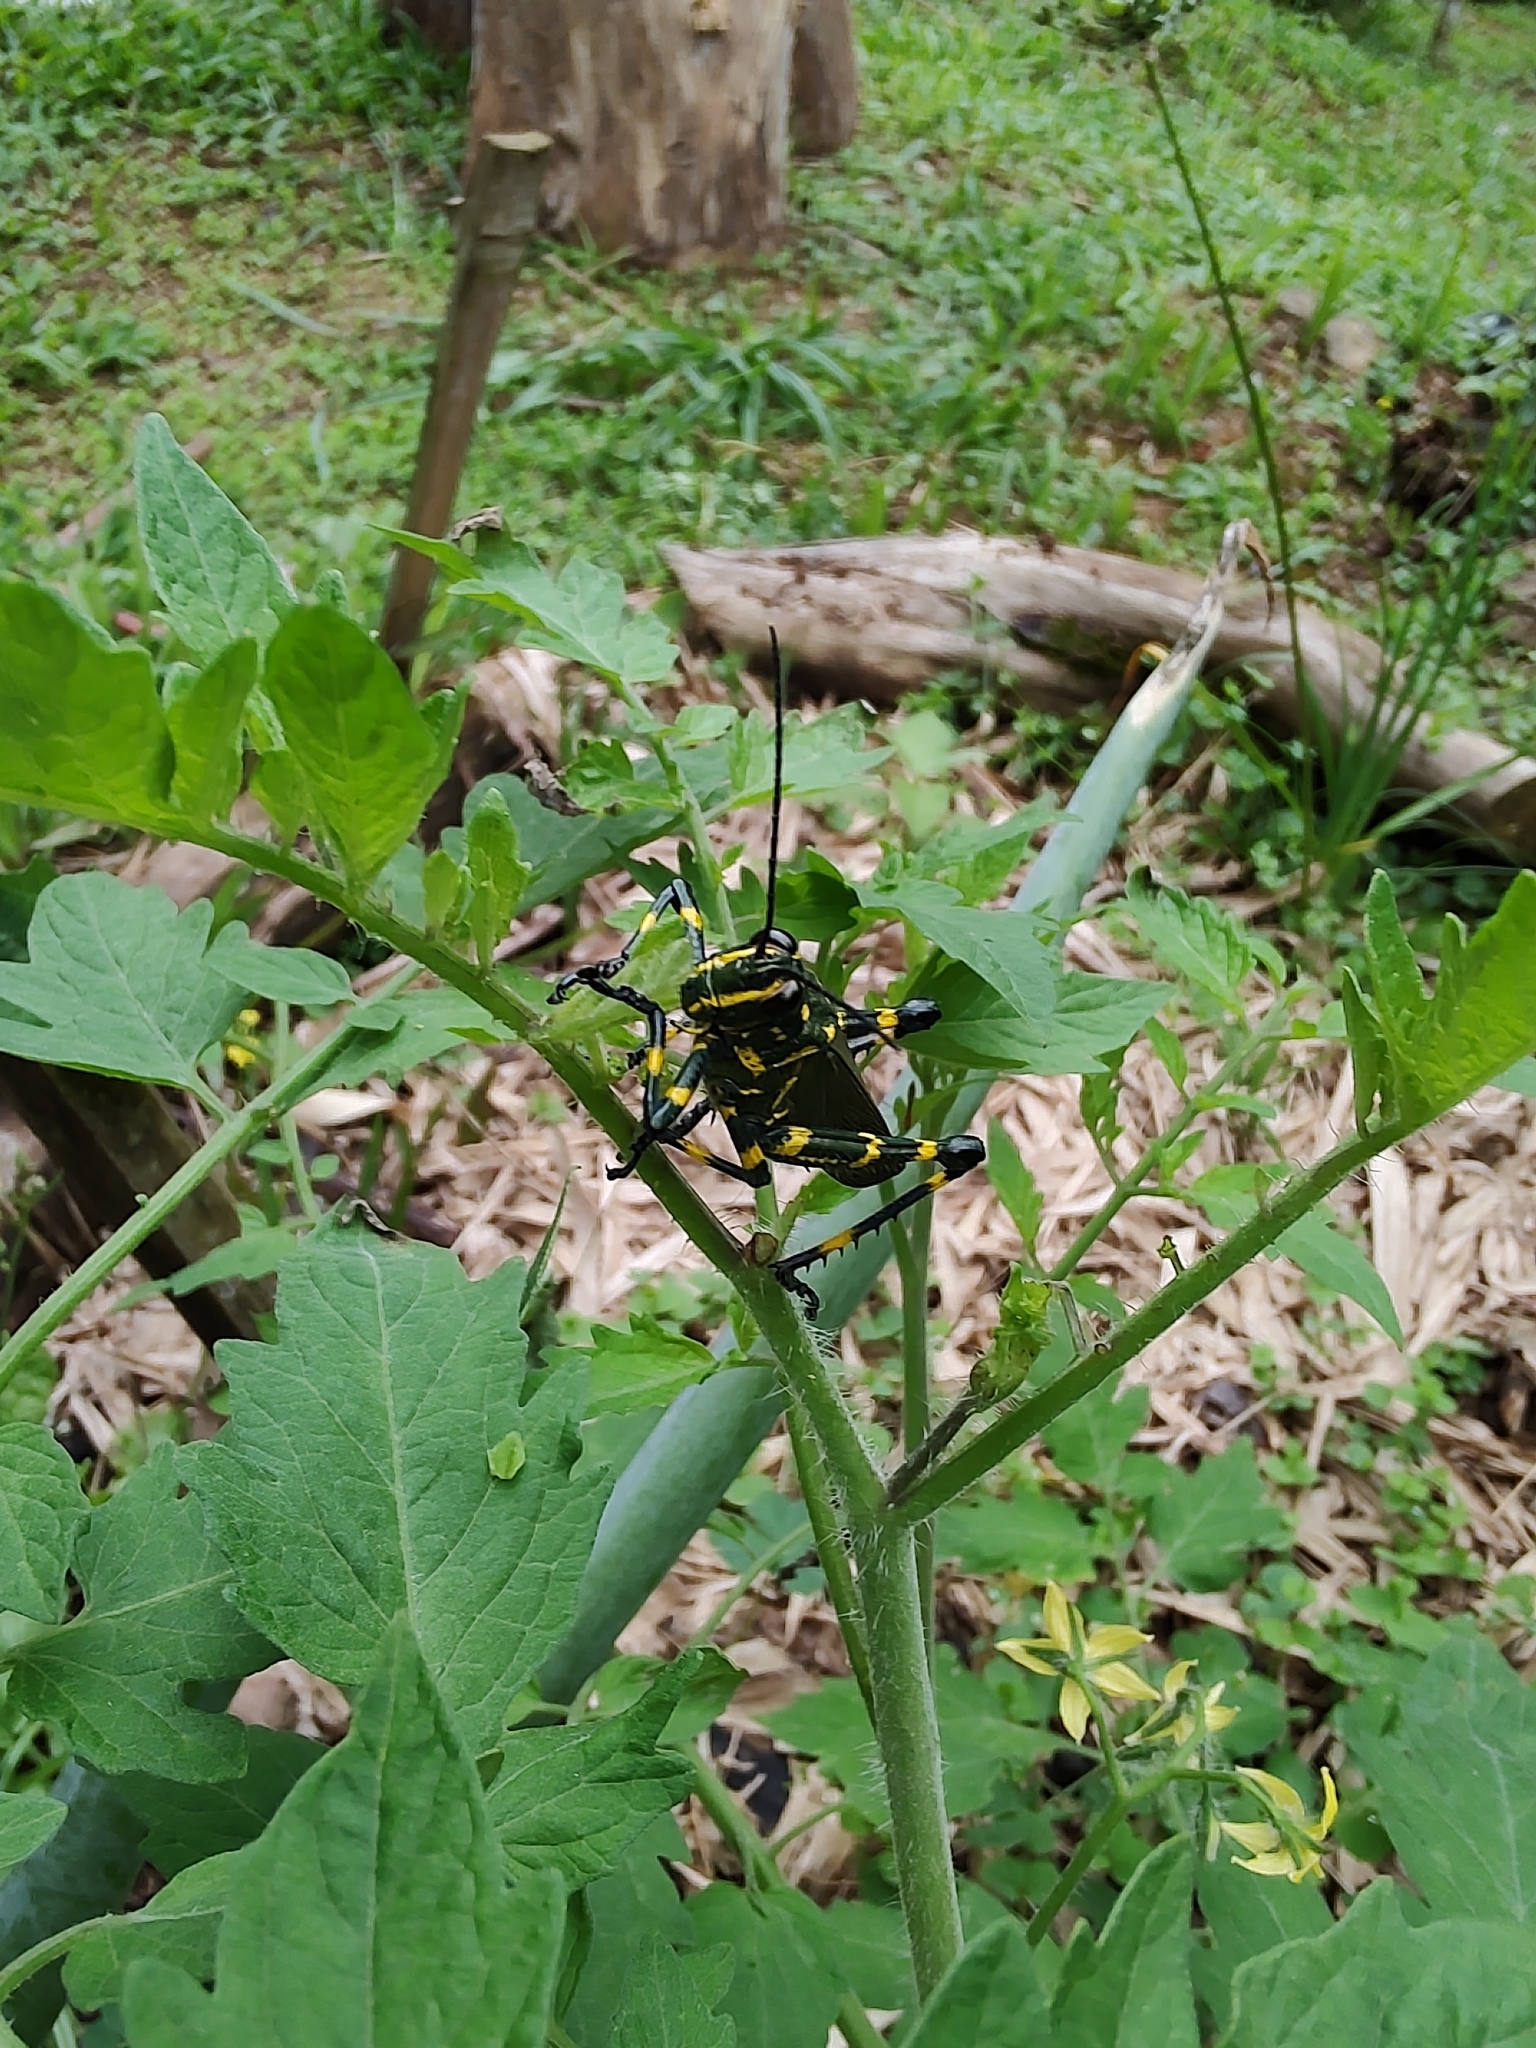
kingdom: Animalia
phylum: Arthropoda
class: Insecta
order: Orthoptera
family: Romaleidae
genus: Chromacris
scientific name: Chromacris speciosa
